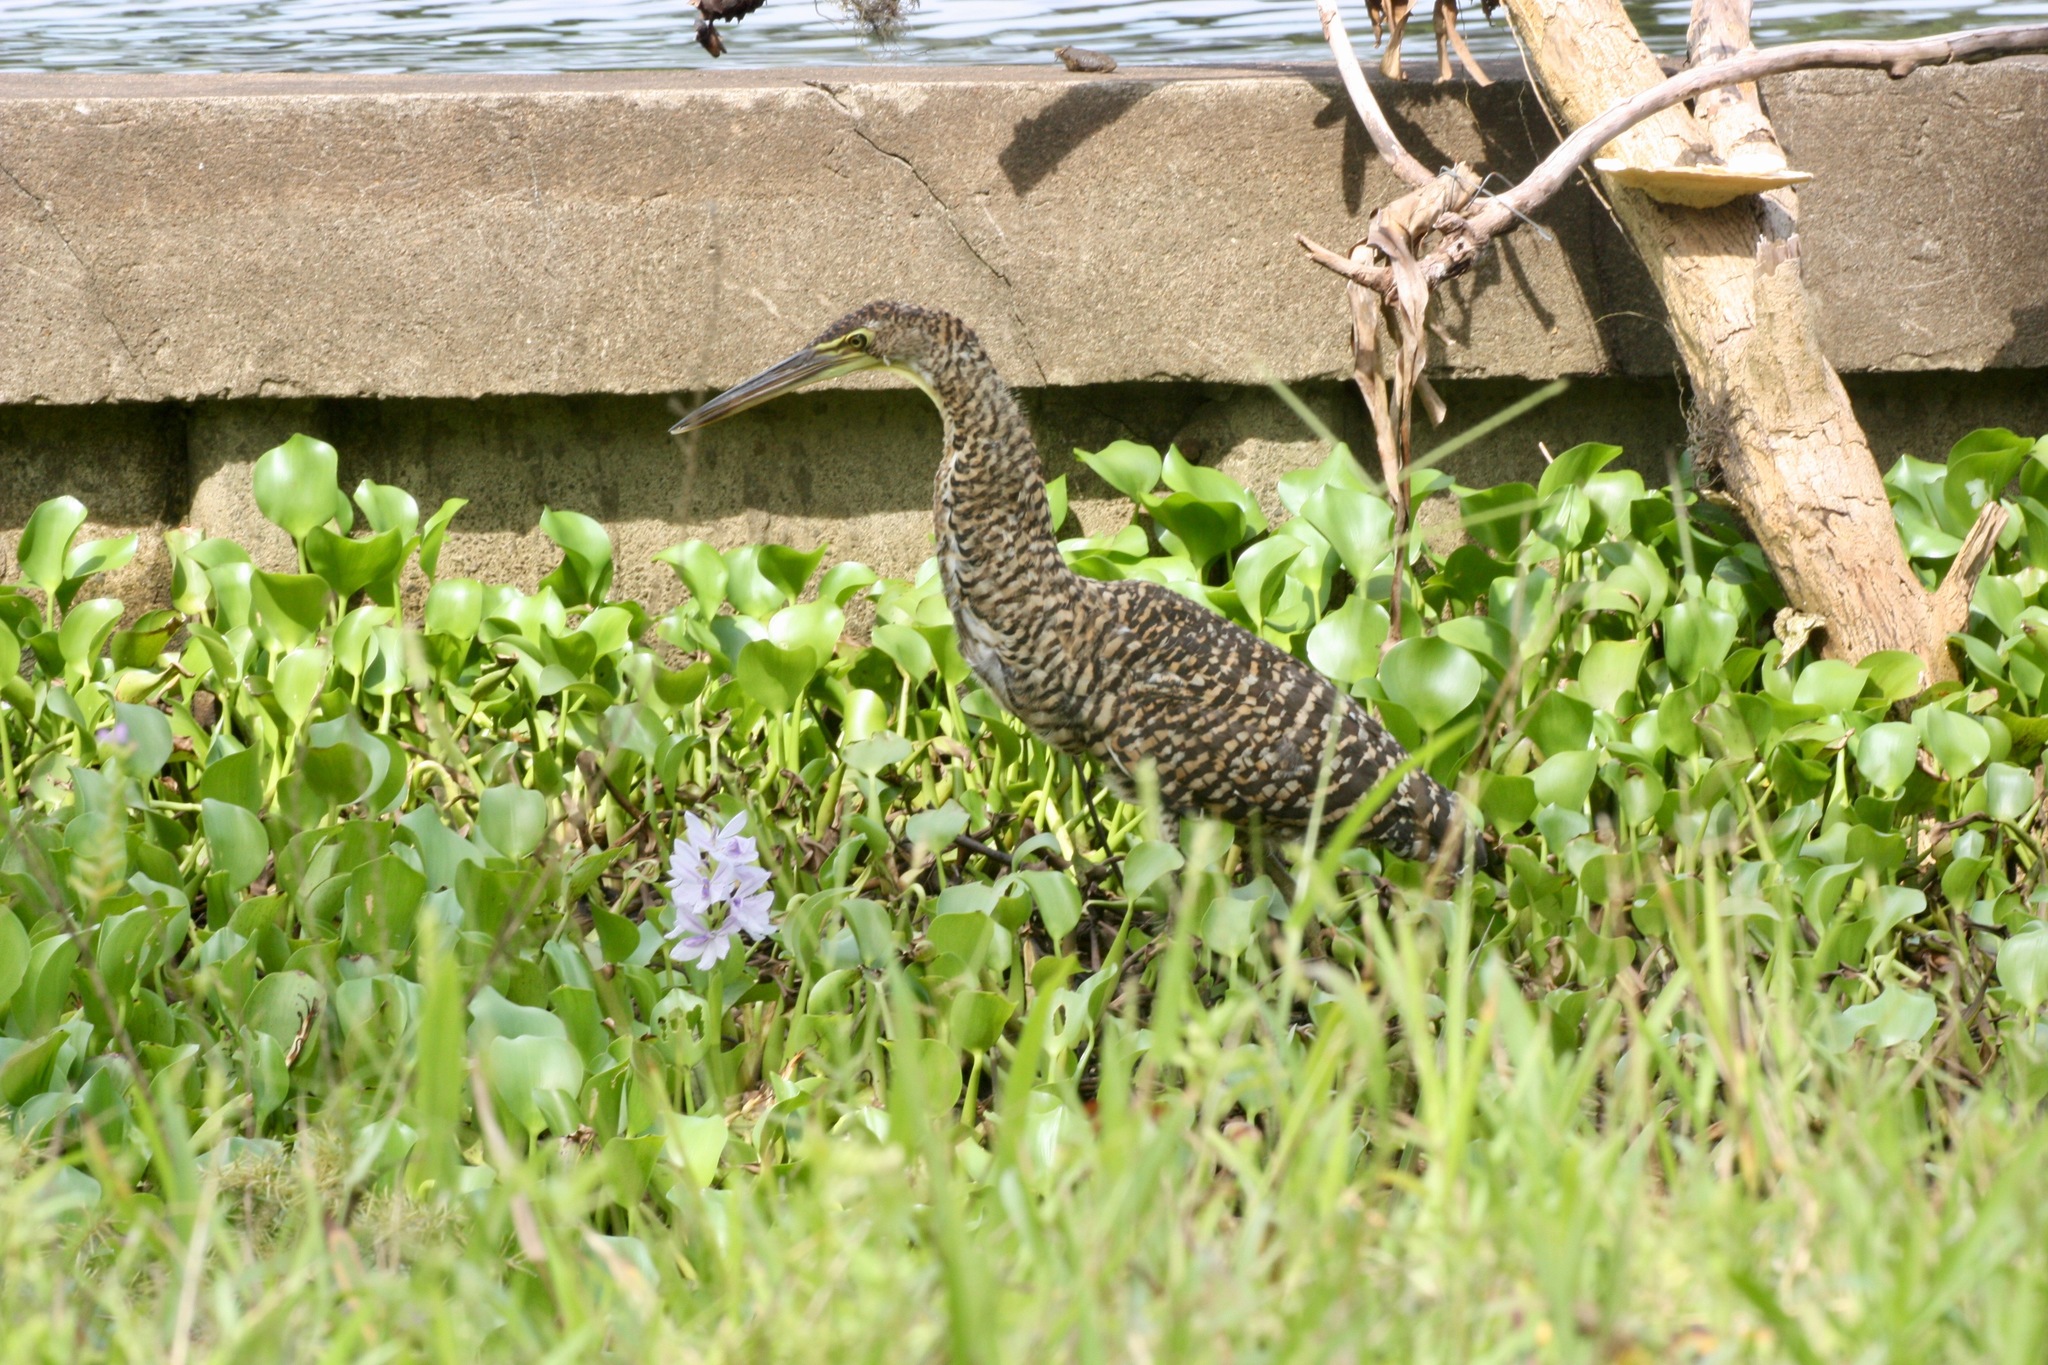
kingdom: Animalia
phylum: Chordata
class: Aves
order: Pelecaniformes
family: Ardeidae
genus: Tigrisoma
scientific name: Tigrisoma mexicanum
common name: Bare-throated tiger-heron
